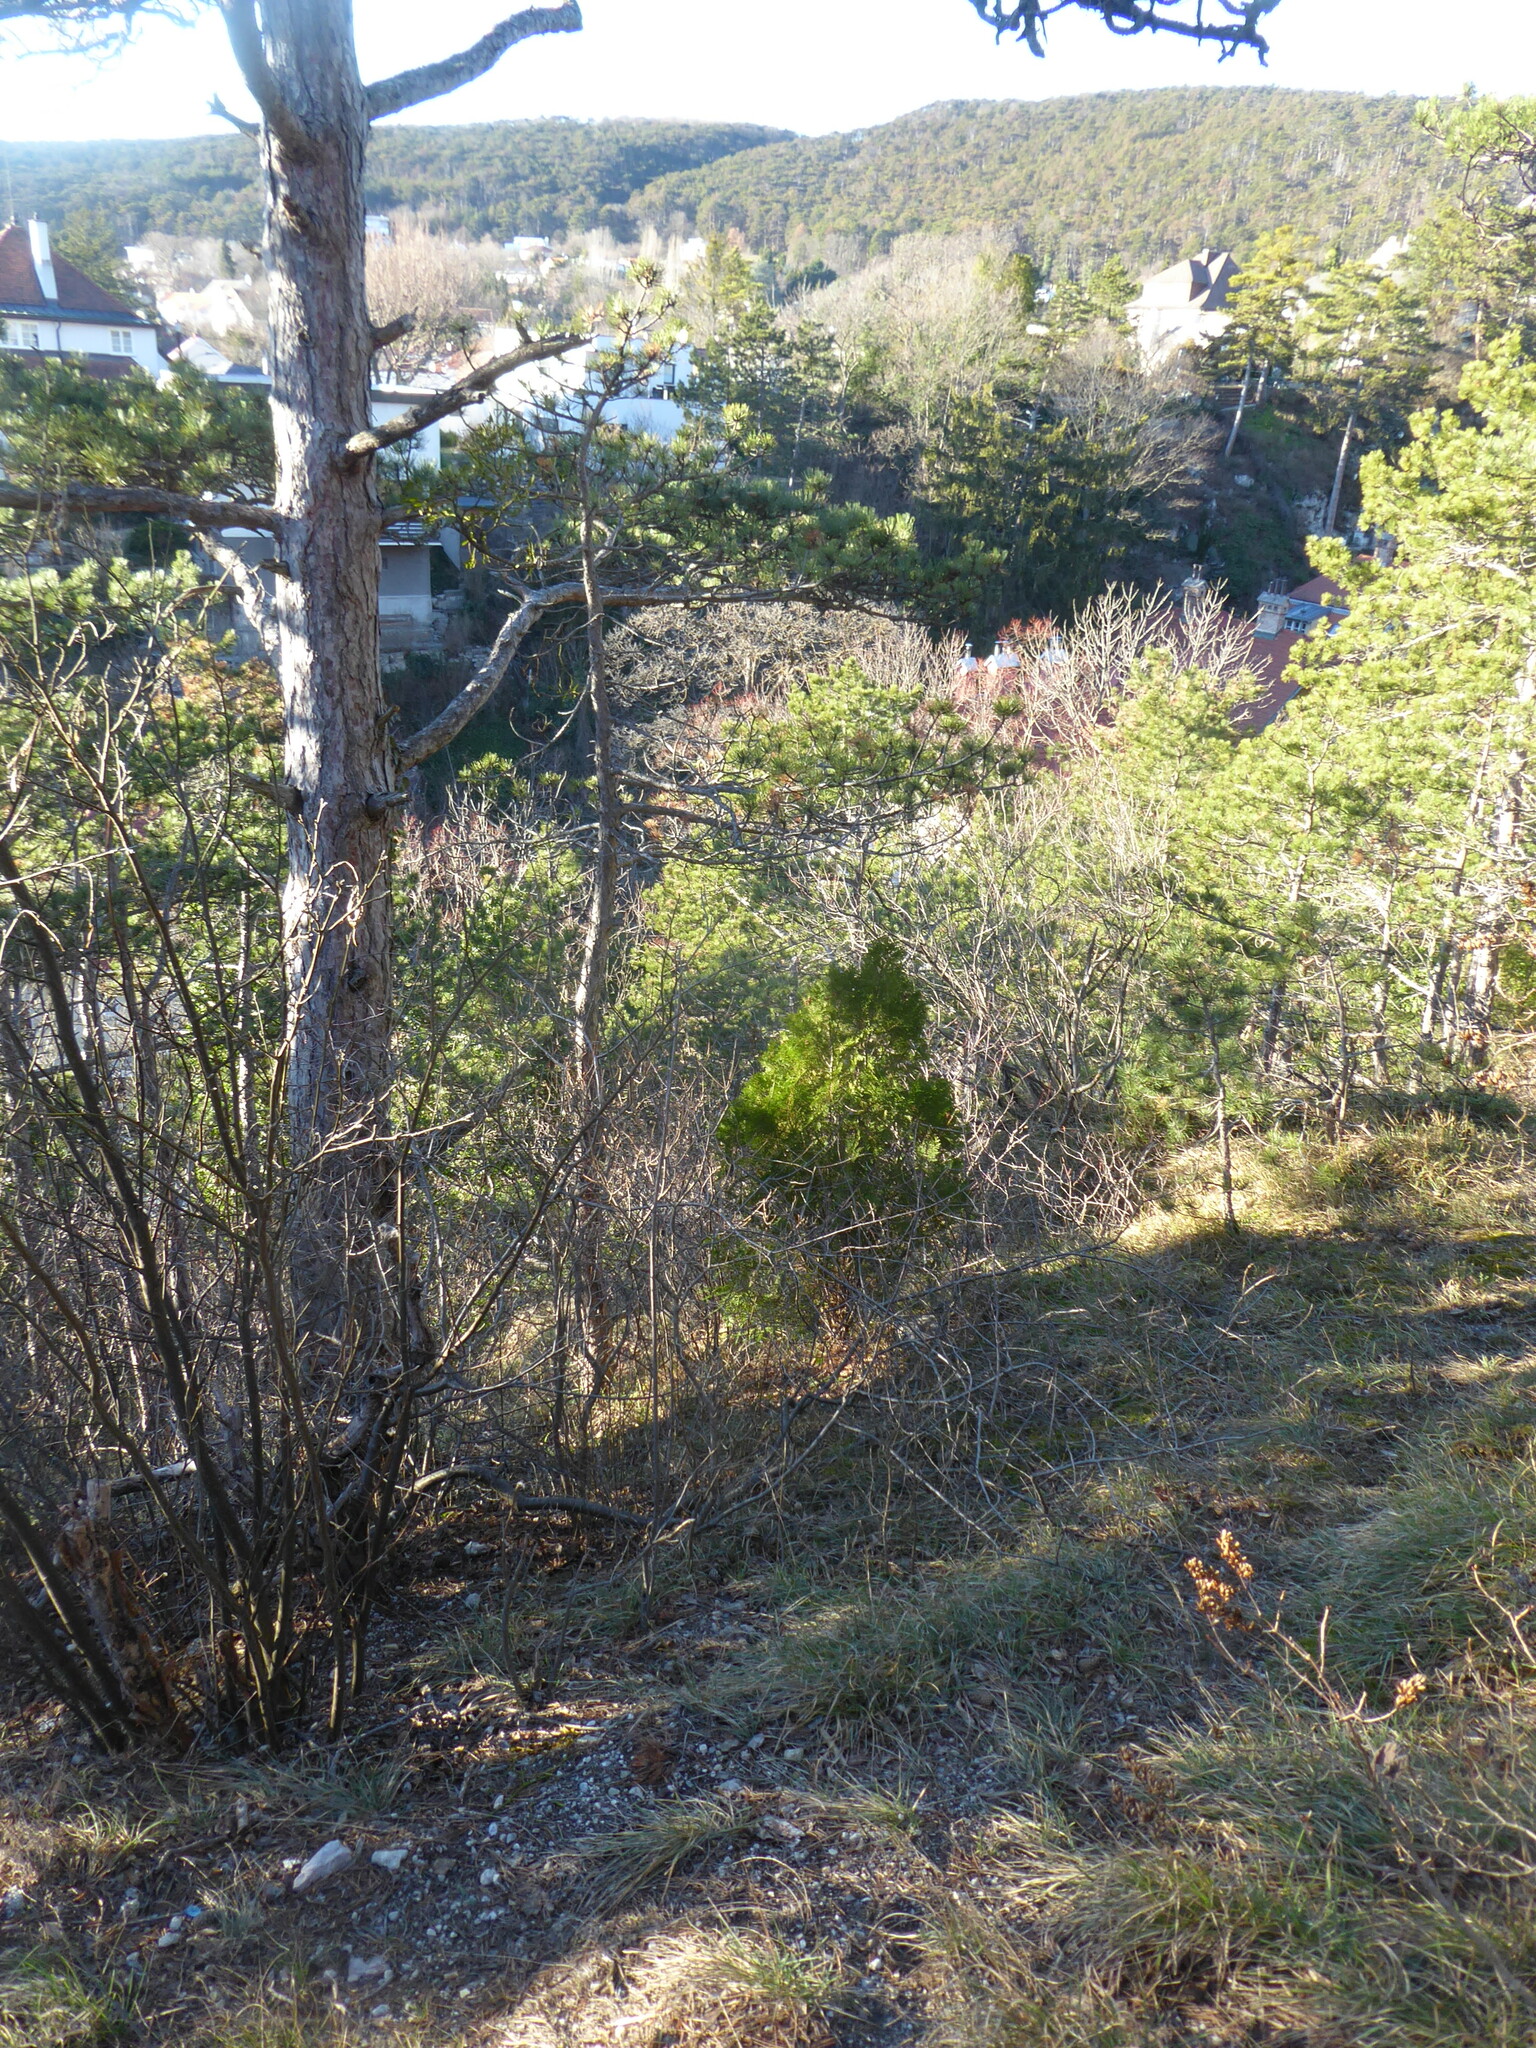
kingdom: Plantae
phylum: Tracheophyta
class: Pinopsida
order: Pinales
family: Cupressaceae
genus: Platycladus
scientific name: Platycladus orientalis
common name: Chinese thuja
